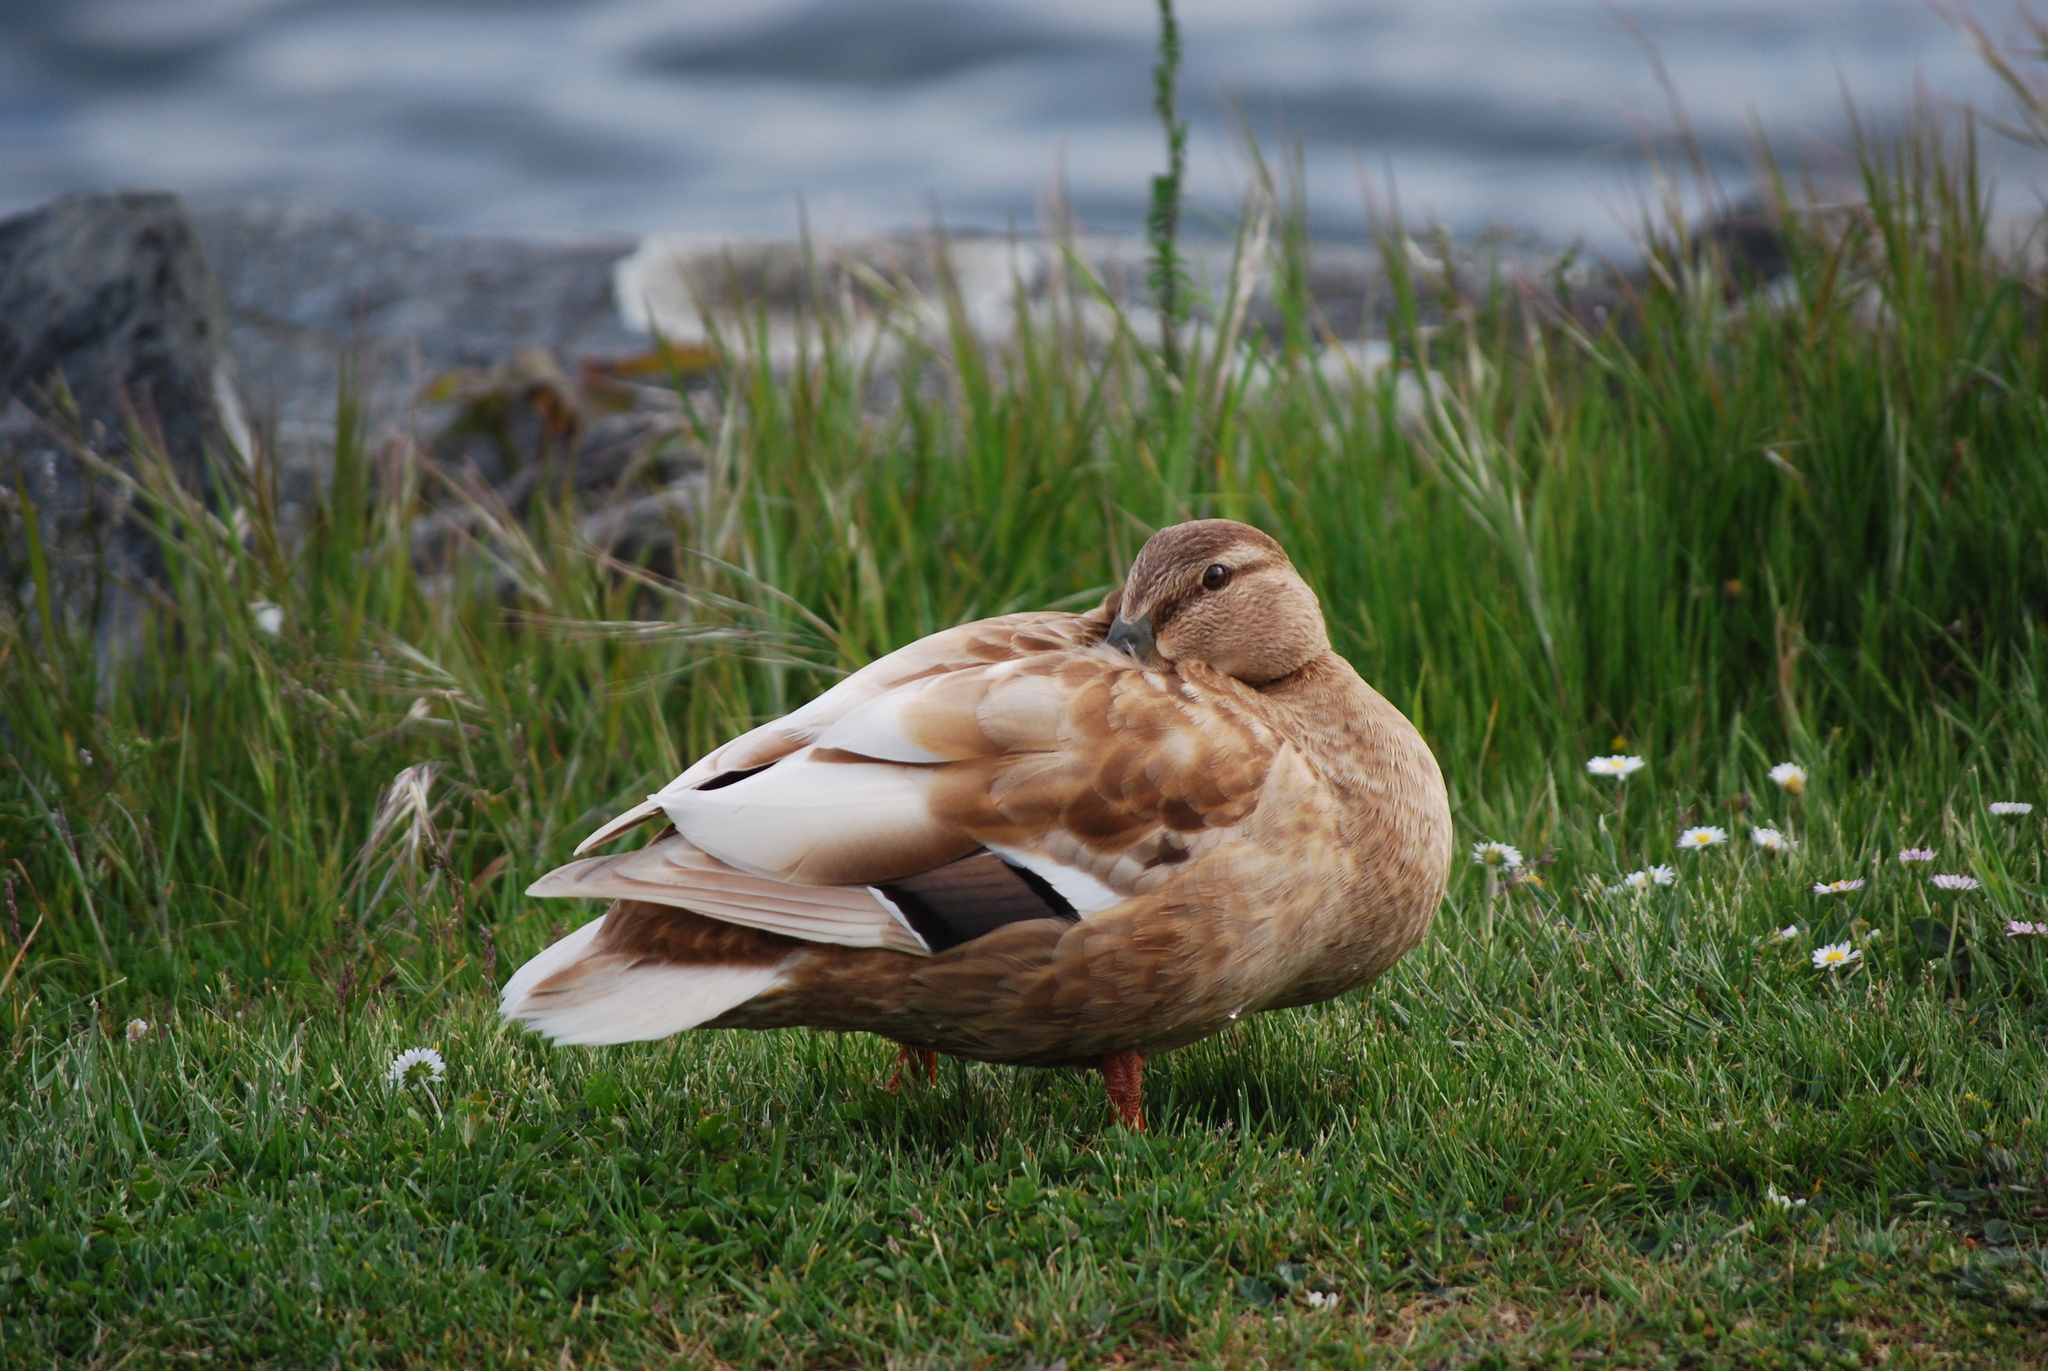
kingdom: Animalia
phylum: Chordata
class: Aves
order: Anseriformes
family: Anatidae
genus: Anas
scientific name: Anas platyrhynchos
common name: Mallard
